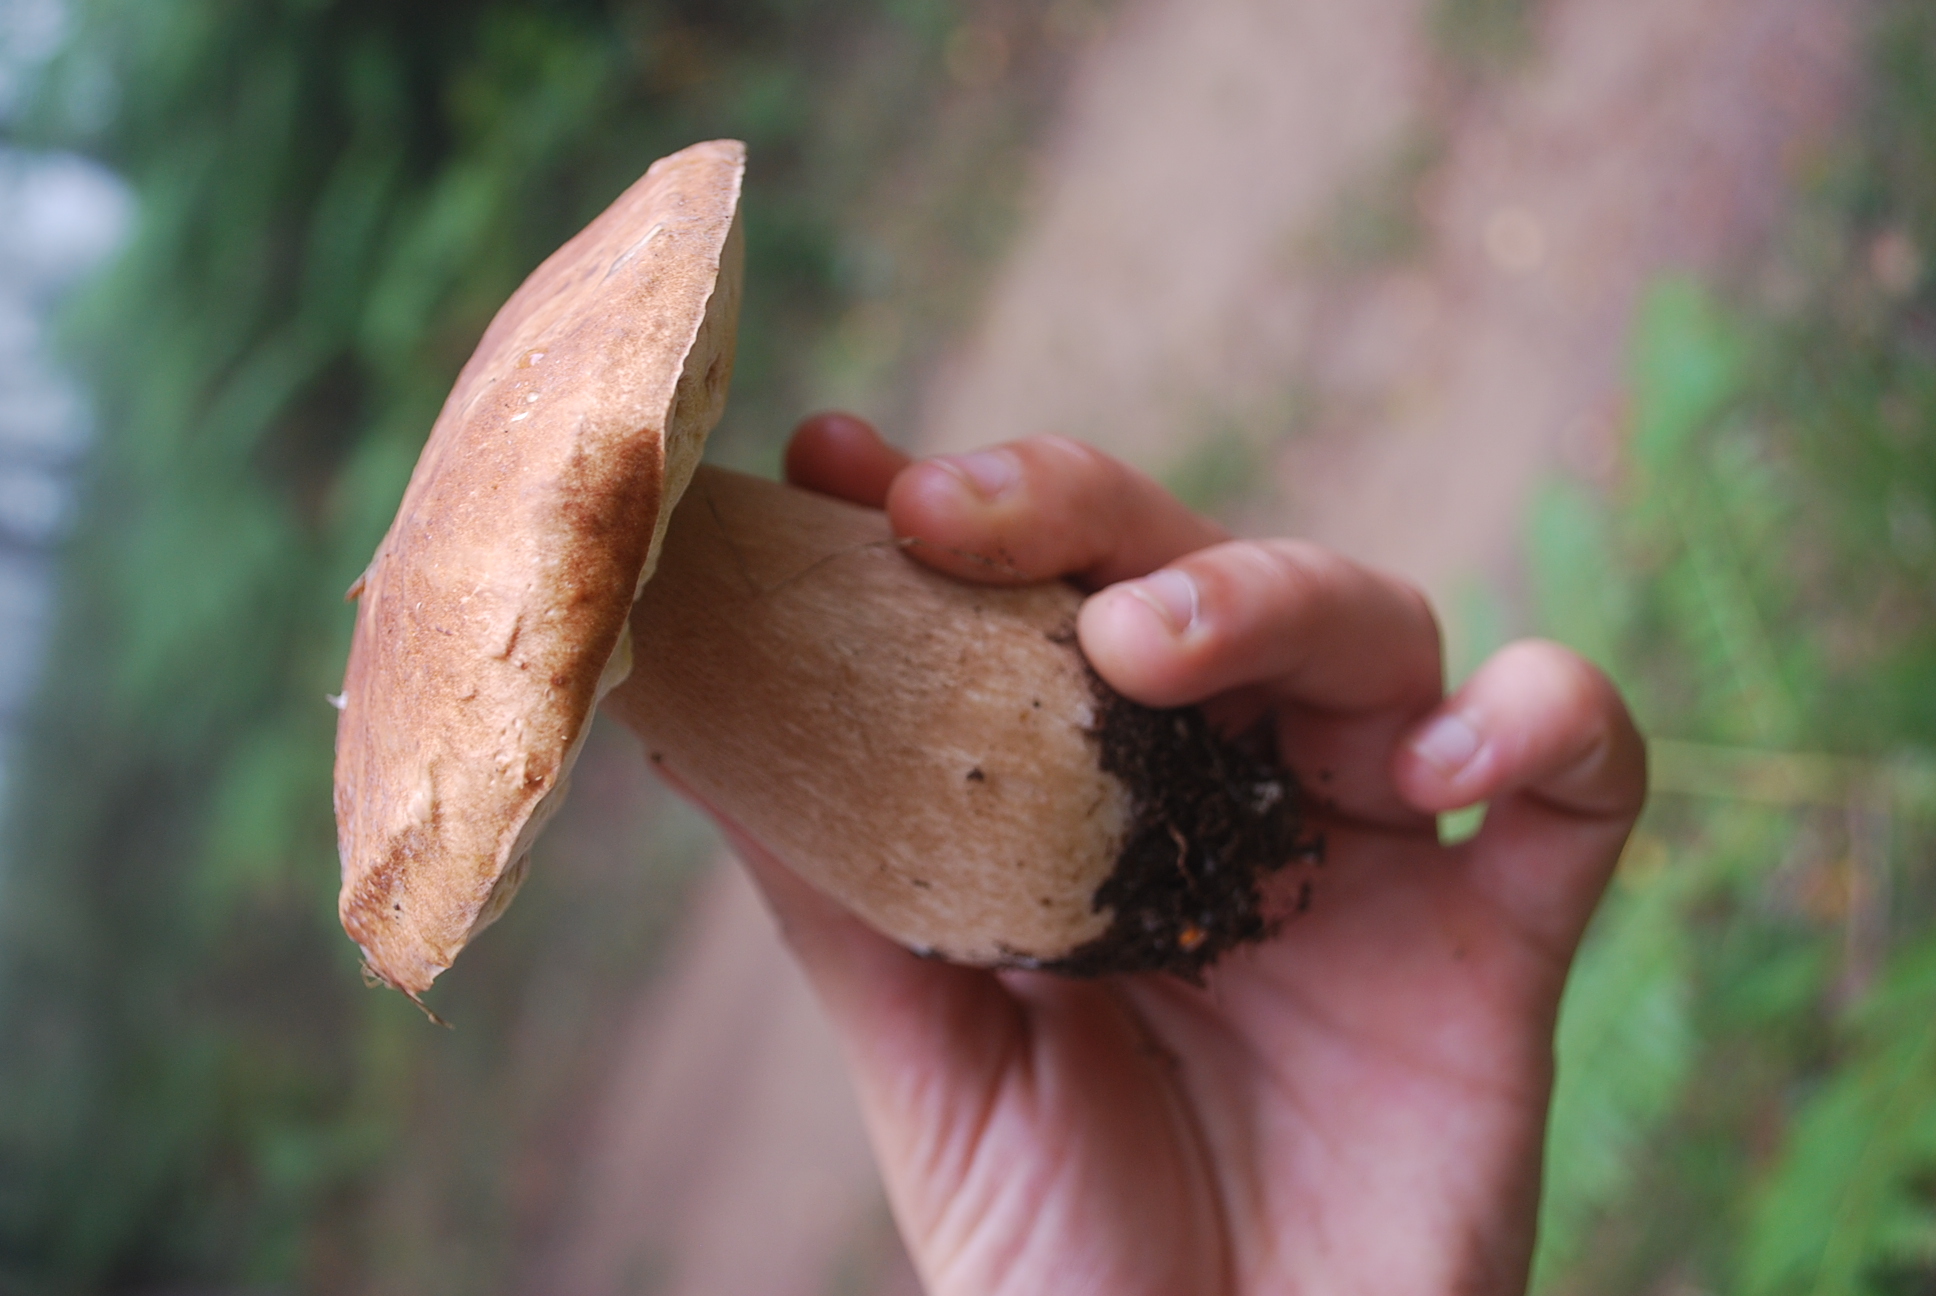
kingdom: Fungi
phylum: Basidiomycota
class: Agaricomycetes
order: Boletales
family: Boletaceae
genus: Boletus
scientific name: Boletus reticulatus
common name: Summer bolete
